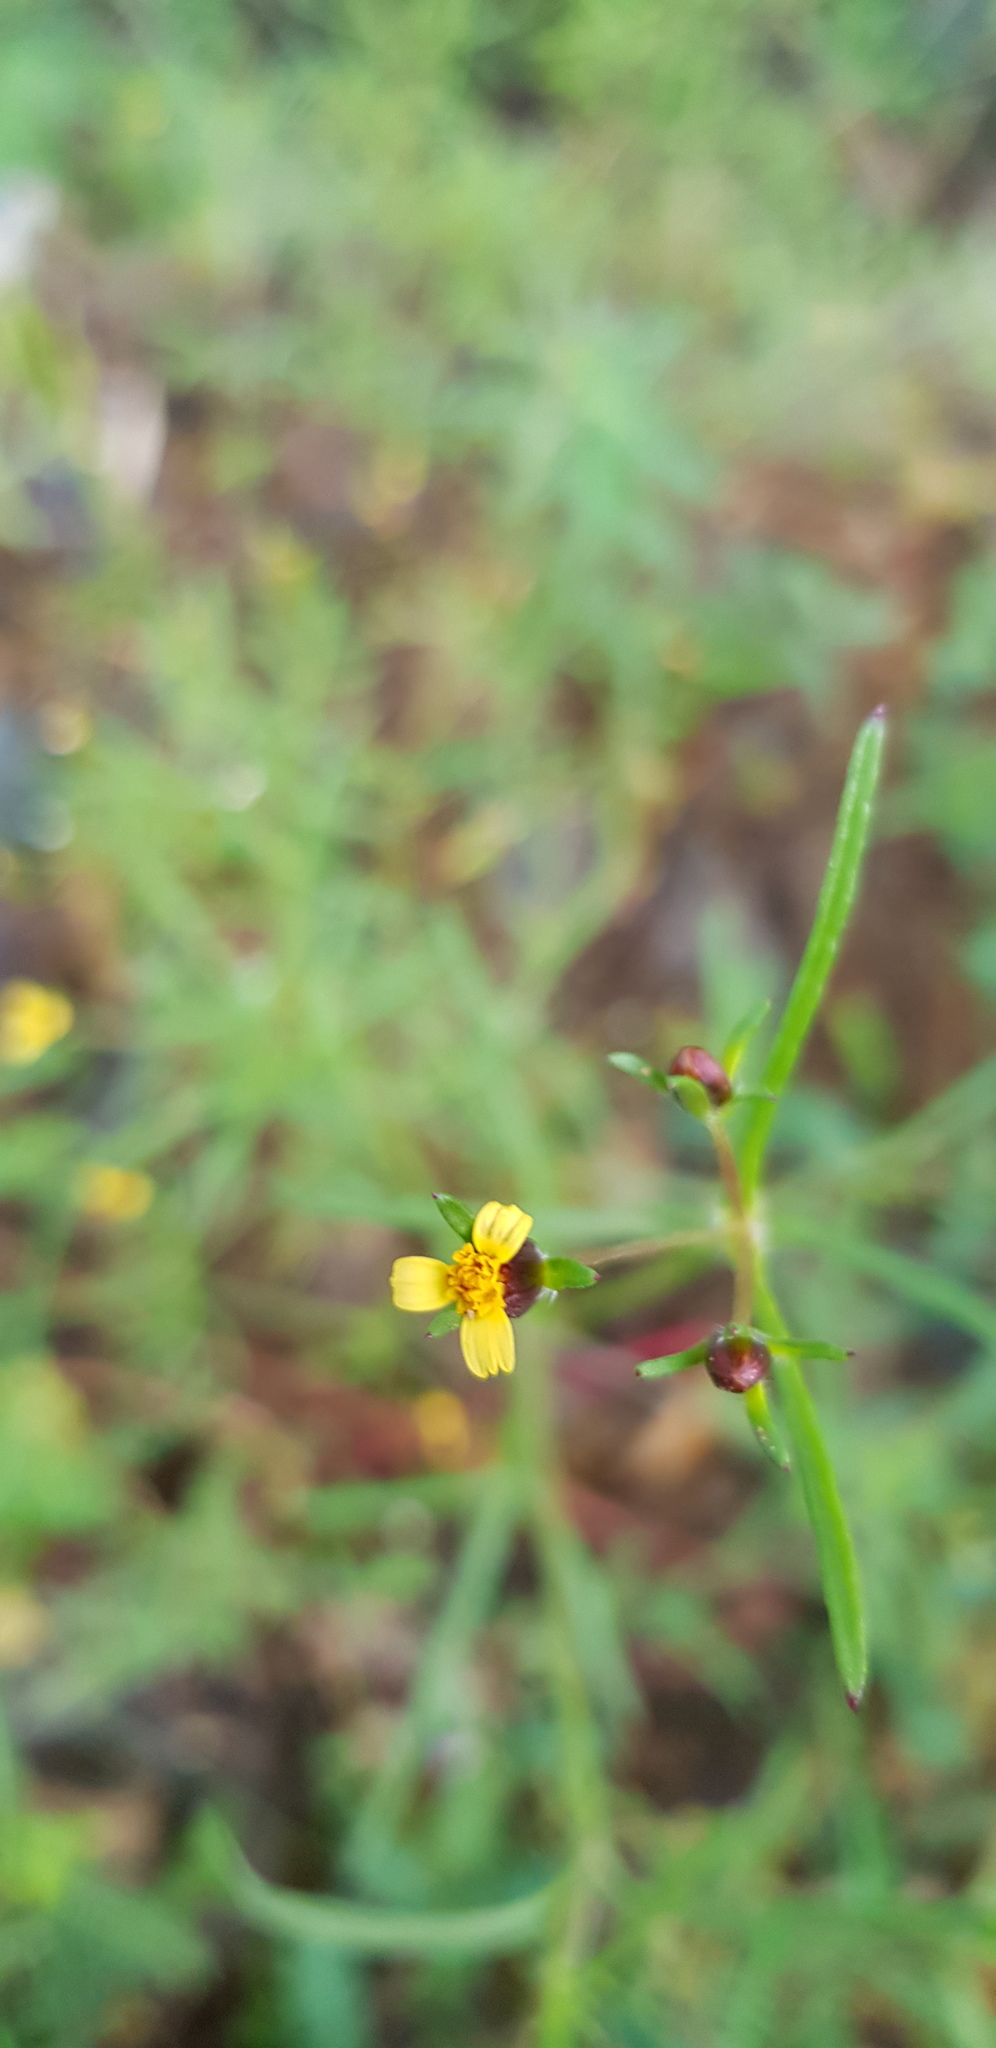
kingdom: Plantae
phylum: Tracheophyta
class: Magnoliopsida
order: Asterales
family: Asteraceae
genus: Heterosperma
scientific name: Heterosperma pinnatum
